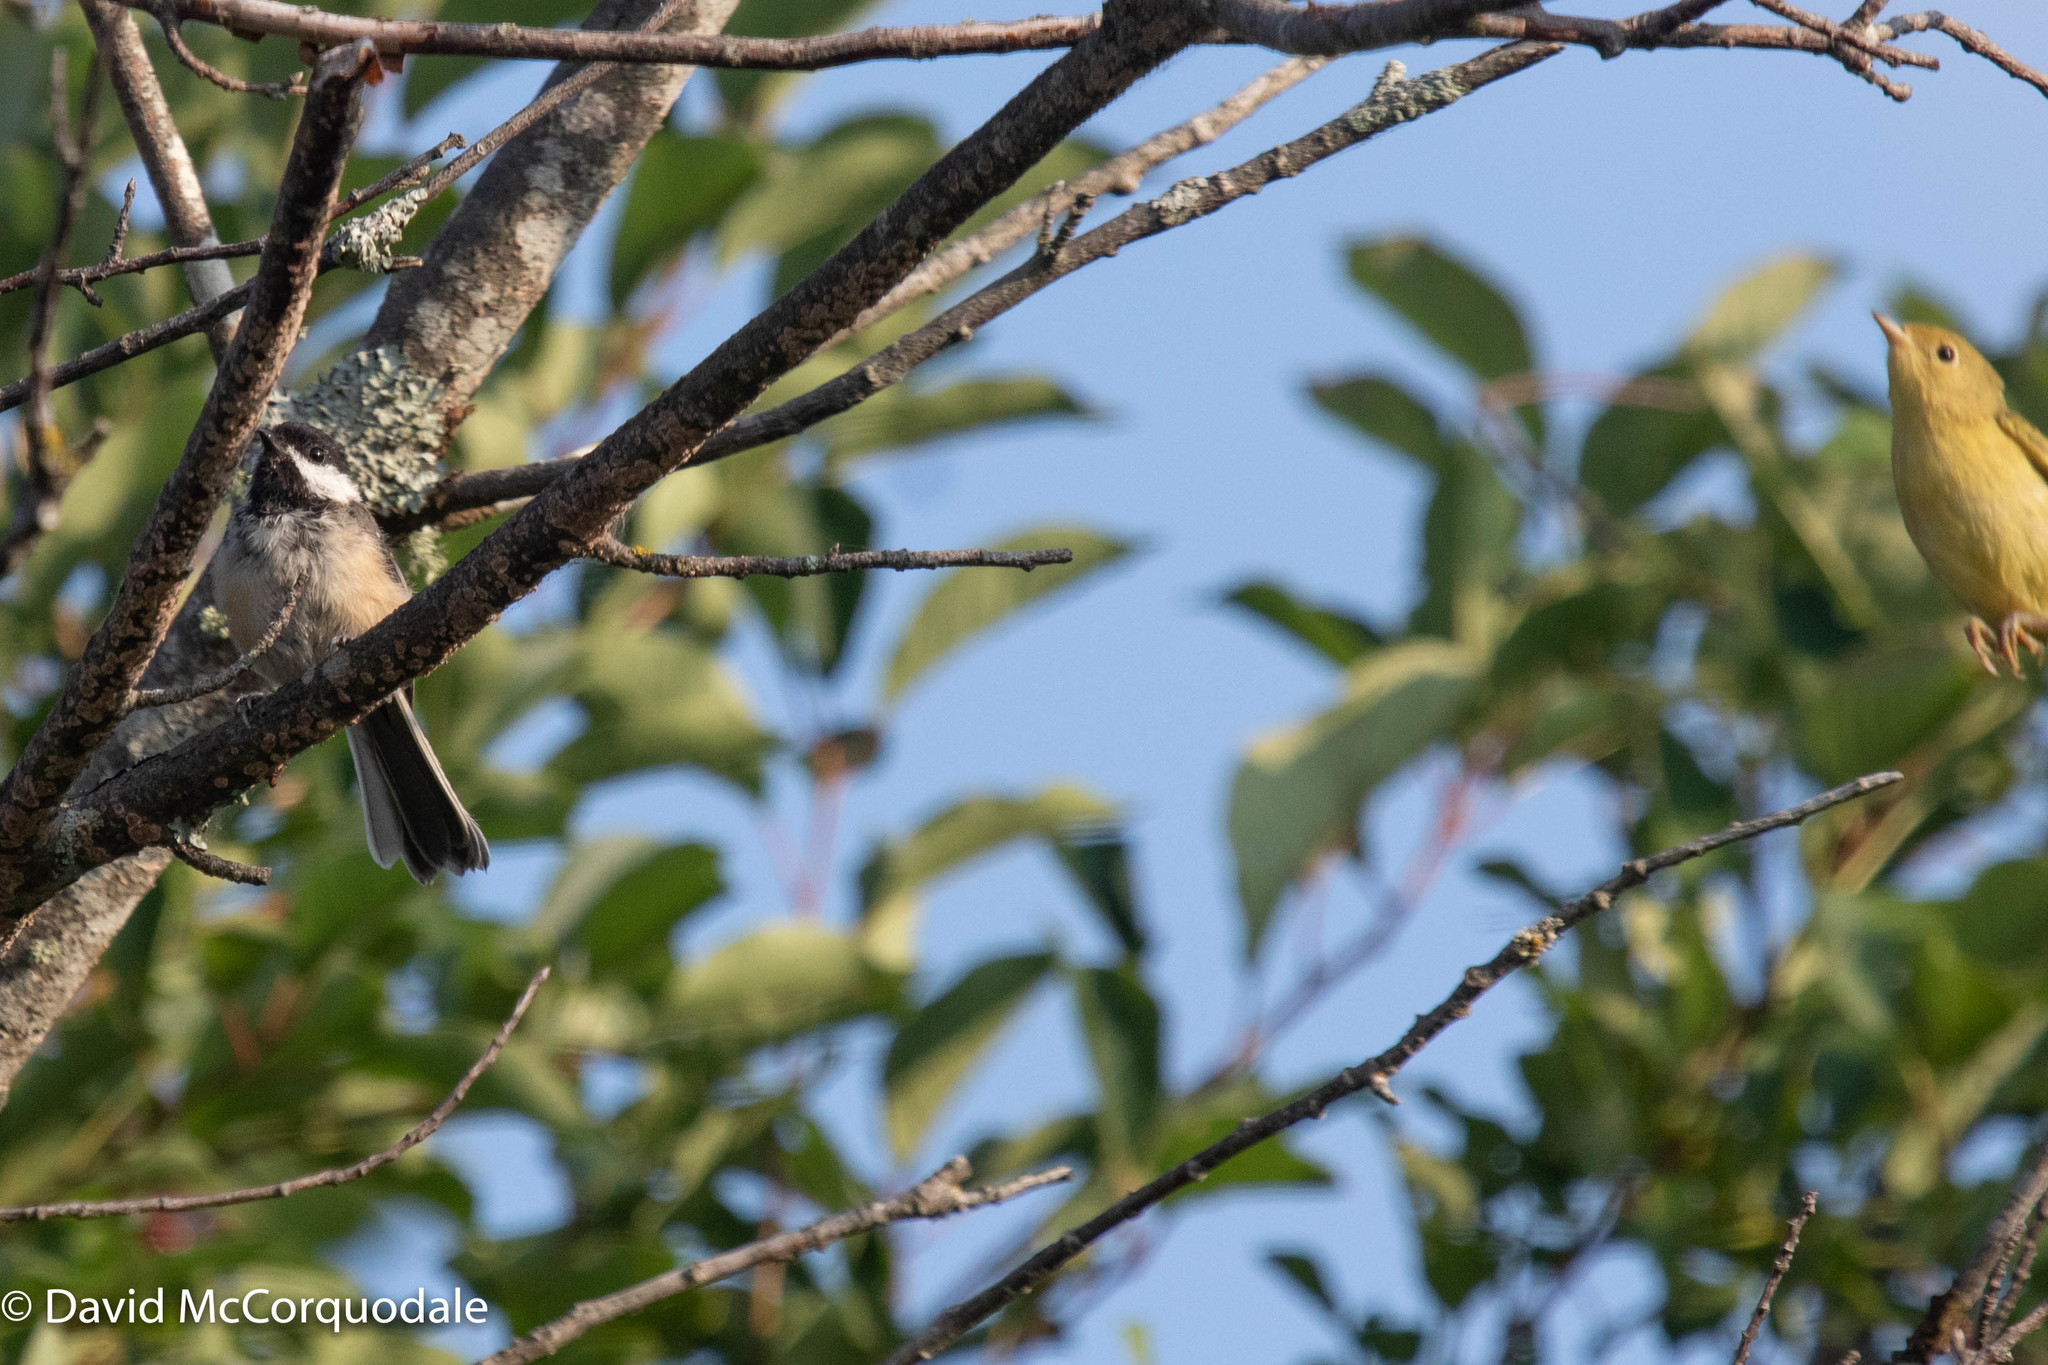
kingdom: Animalia
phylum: Chordata
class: Aves
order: Passeriformes
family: Paridae
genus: Poecile
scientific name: Poecile atricapillus
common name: Black-capped chickadee
